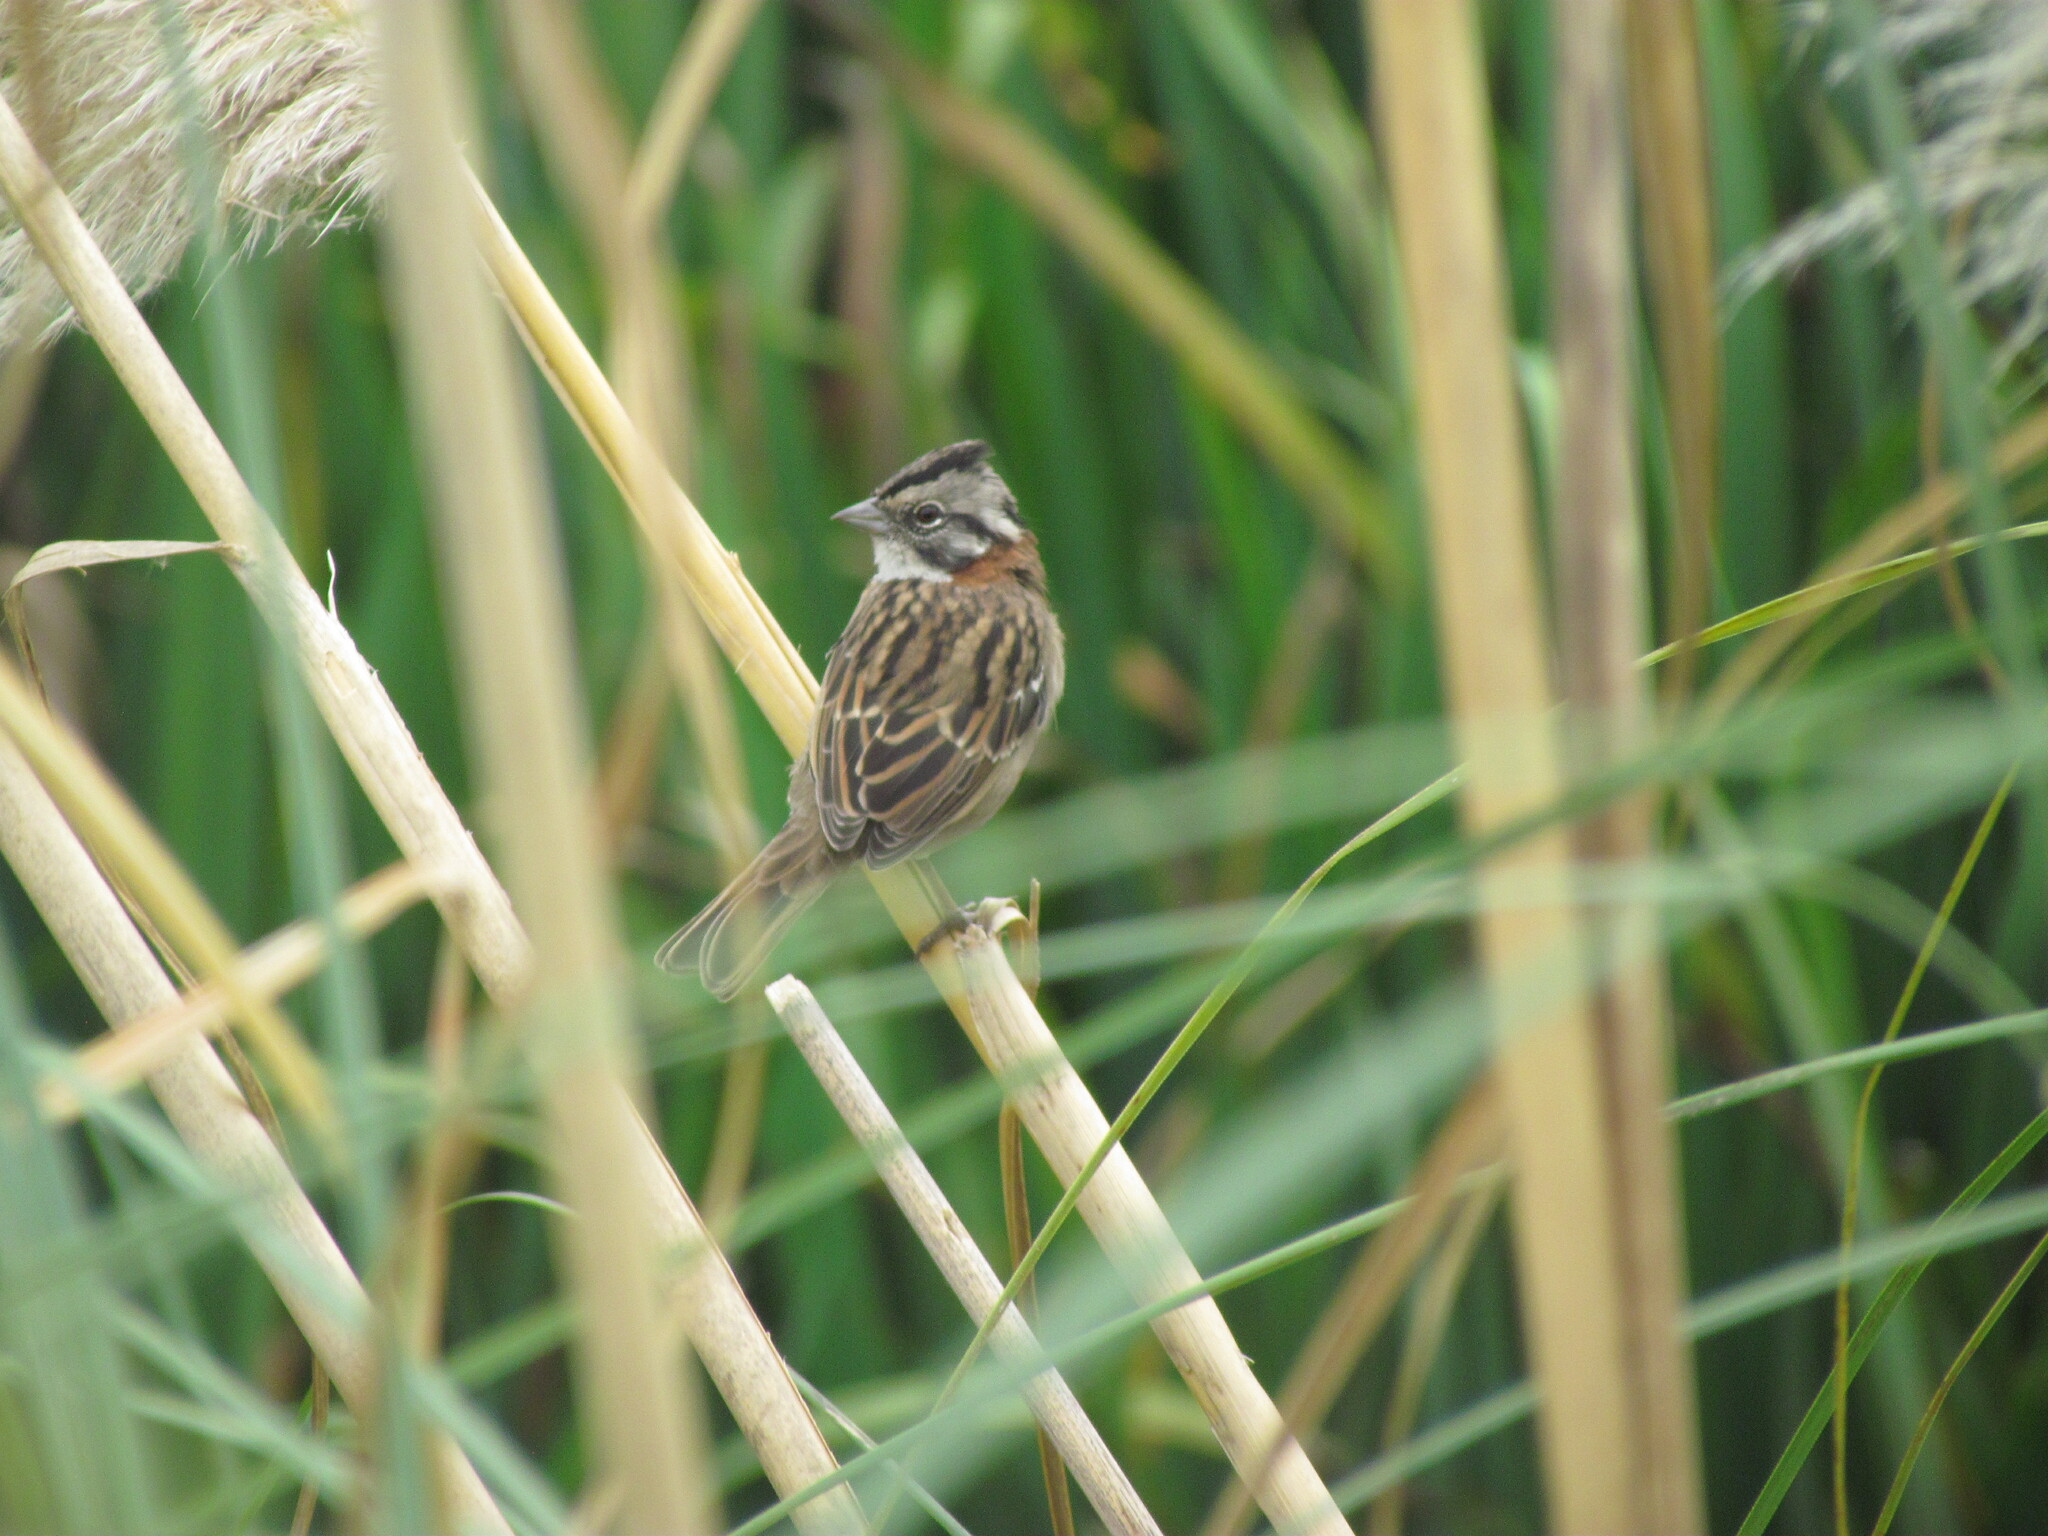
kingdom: Animalia
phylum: Chordata
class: Aves
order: Passeriformes
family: Passerellidae
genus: Zonotrichia
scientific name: Zonotrichia capensis
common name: Rufous-collared sparrow
